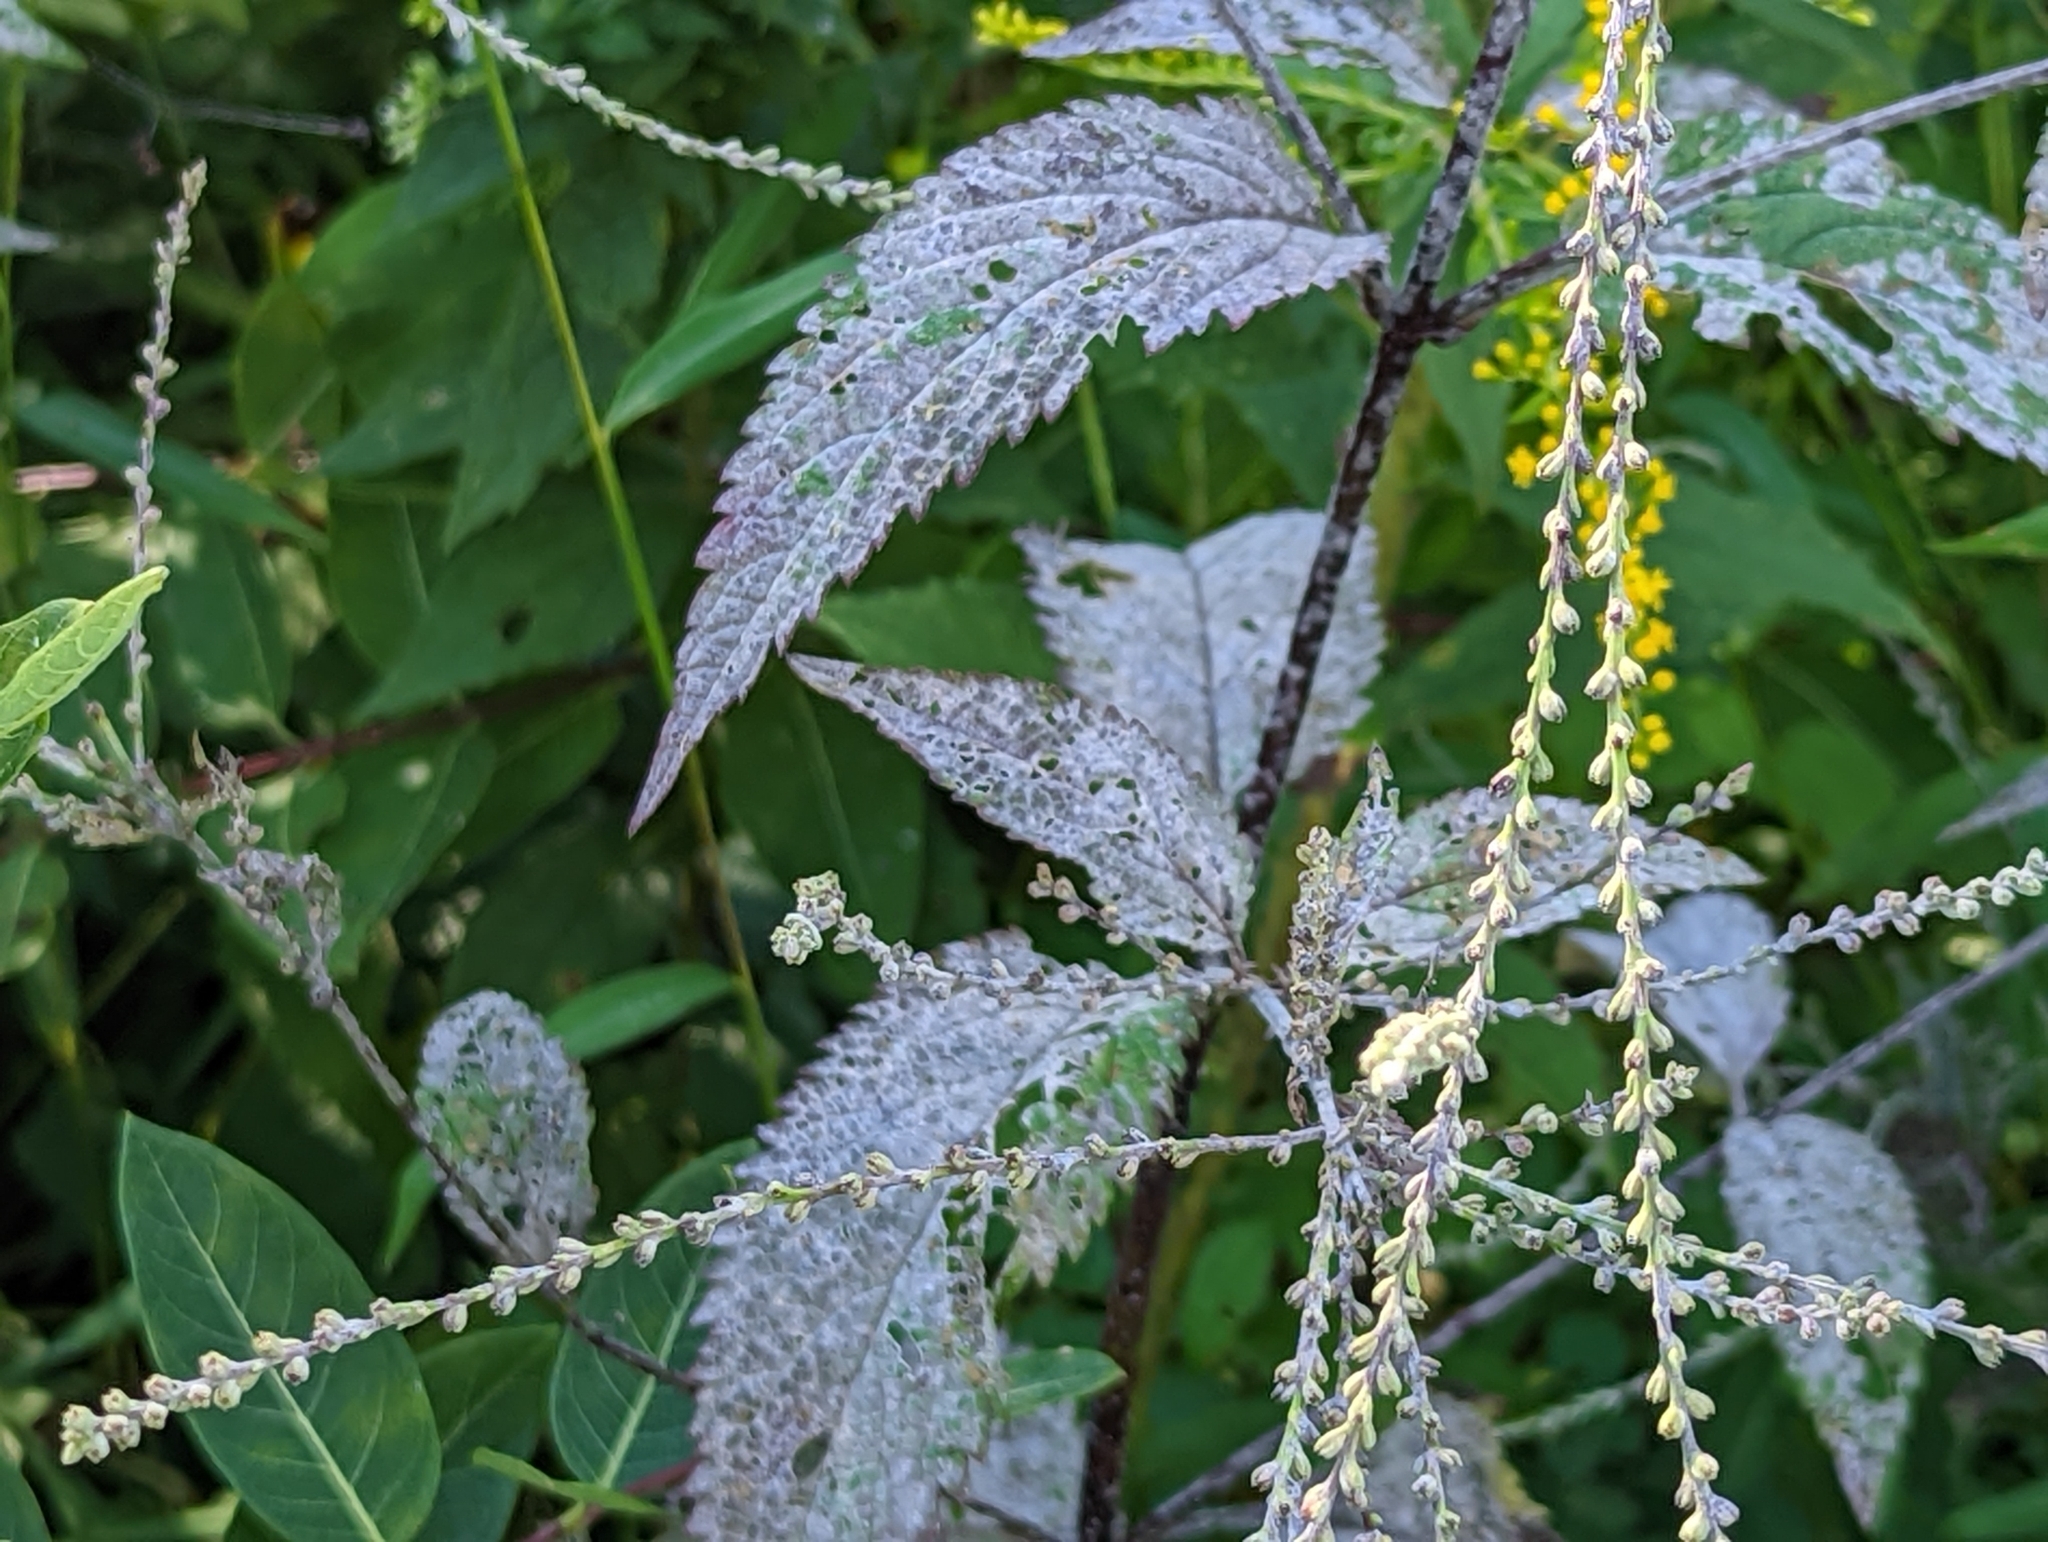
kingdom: Plantae
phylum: Tracheophyta
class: Magnoliopsida
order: Lamiales
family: Verbenaceae
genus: Verbena
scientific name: Verbena urticifolia
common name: Nettle-leaved vervain
